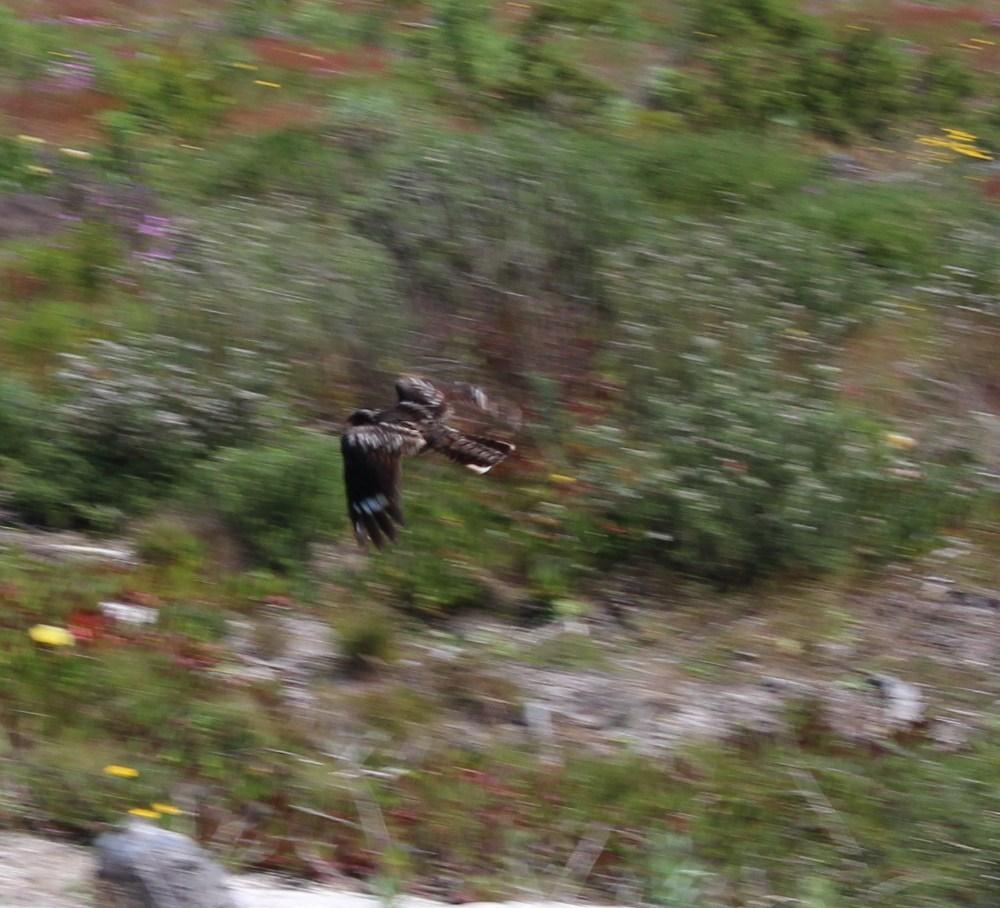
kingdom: Animalia
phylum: Chordata
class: Aves
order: Caprimulgiformes
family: Caprimulgidae
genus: Caprimulgus
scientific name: Caprimulgus pectoralis
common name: Fiery-necked nightjar
